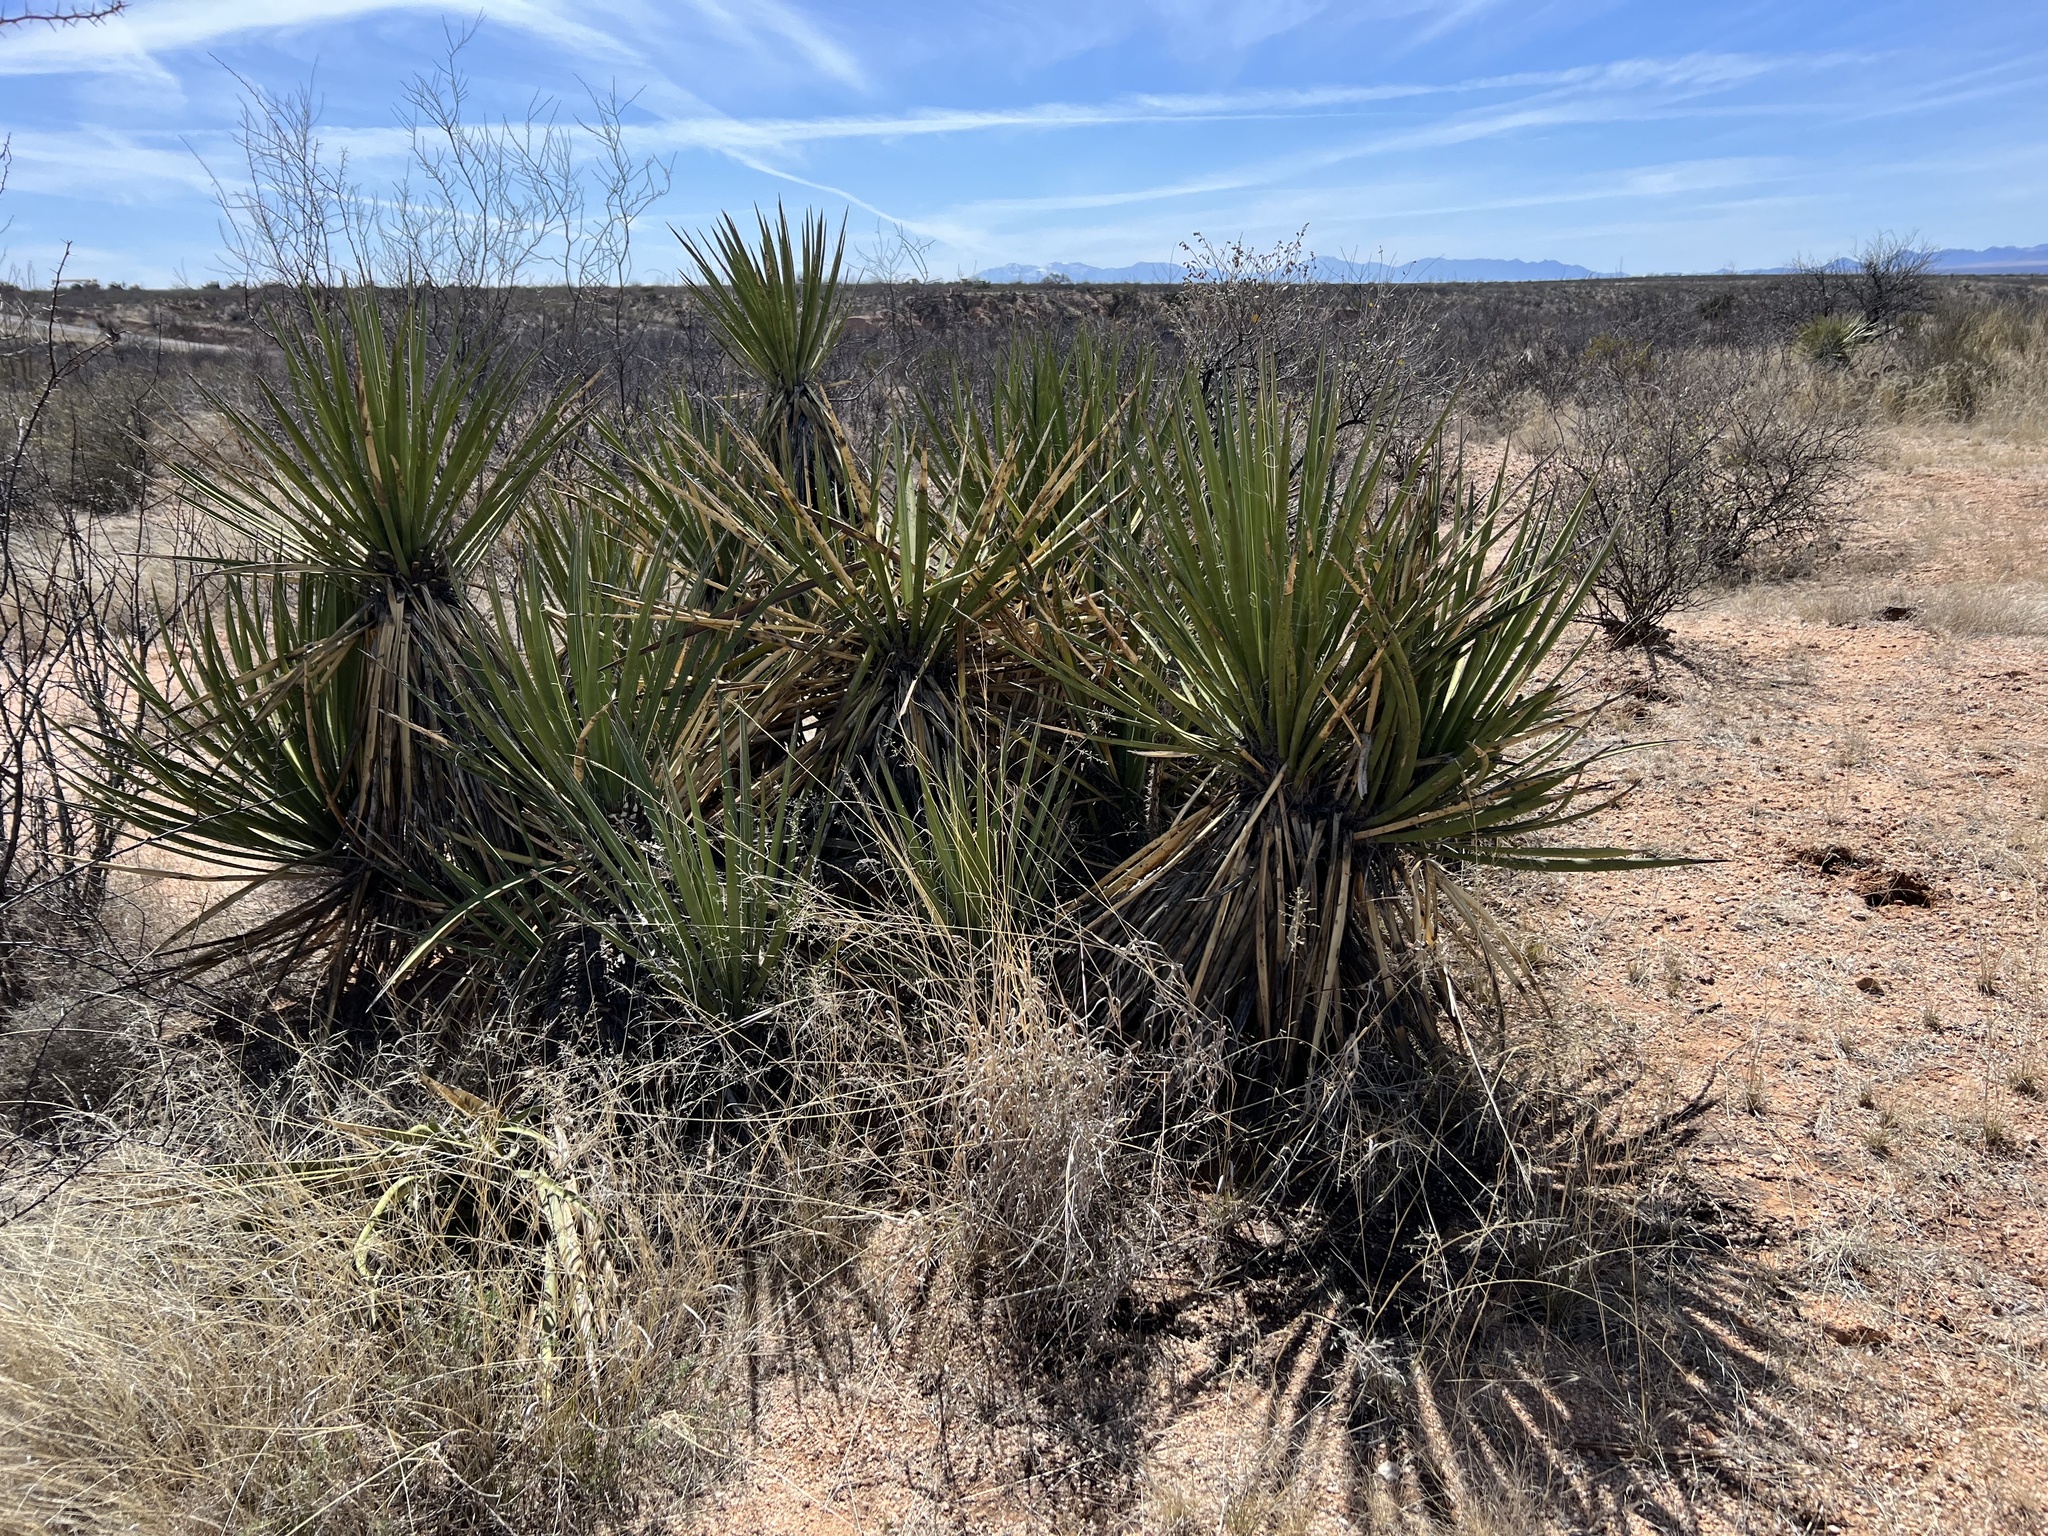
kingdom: Plantae
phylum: Tracheophyta
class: Liliopsida
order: Asparagales
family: Asparagaceae
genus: Yucca
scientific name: Yucca baccata
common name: Banana yucca
